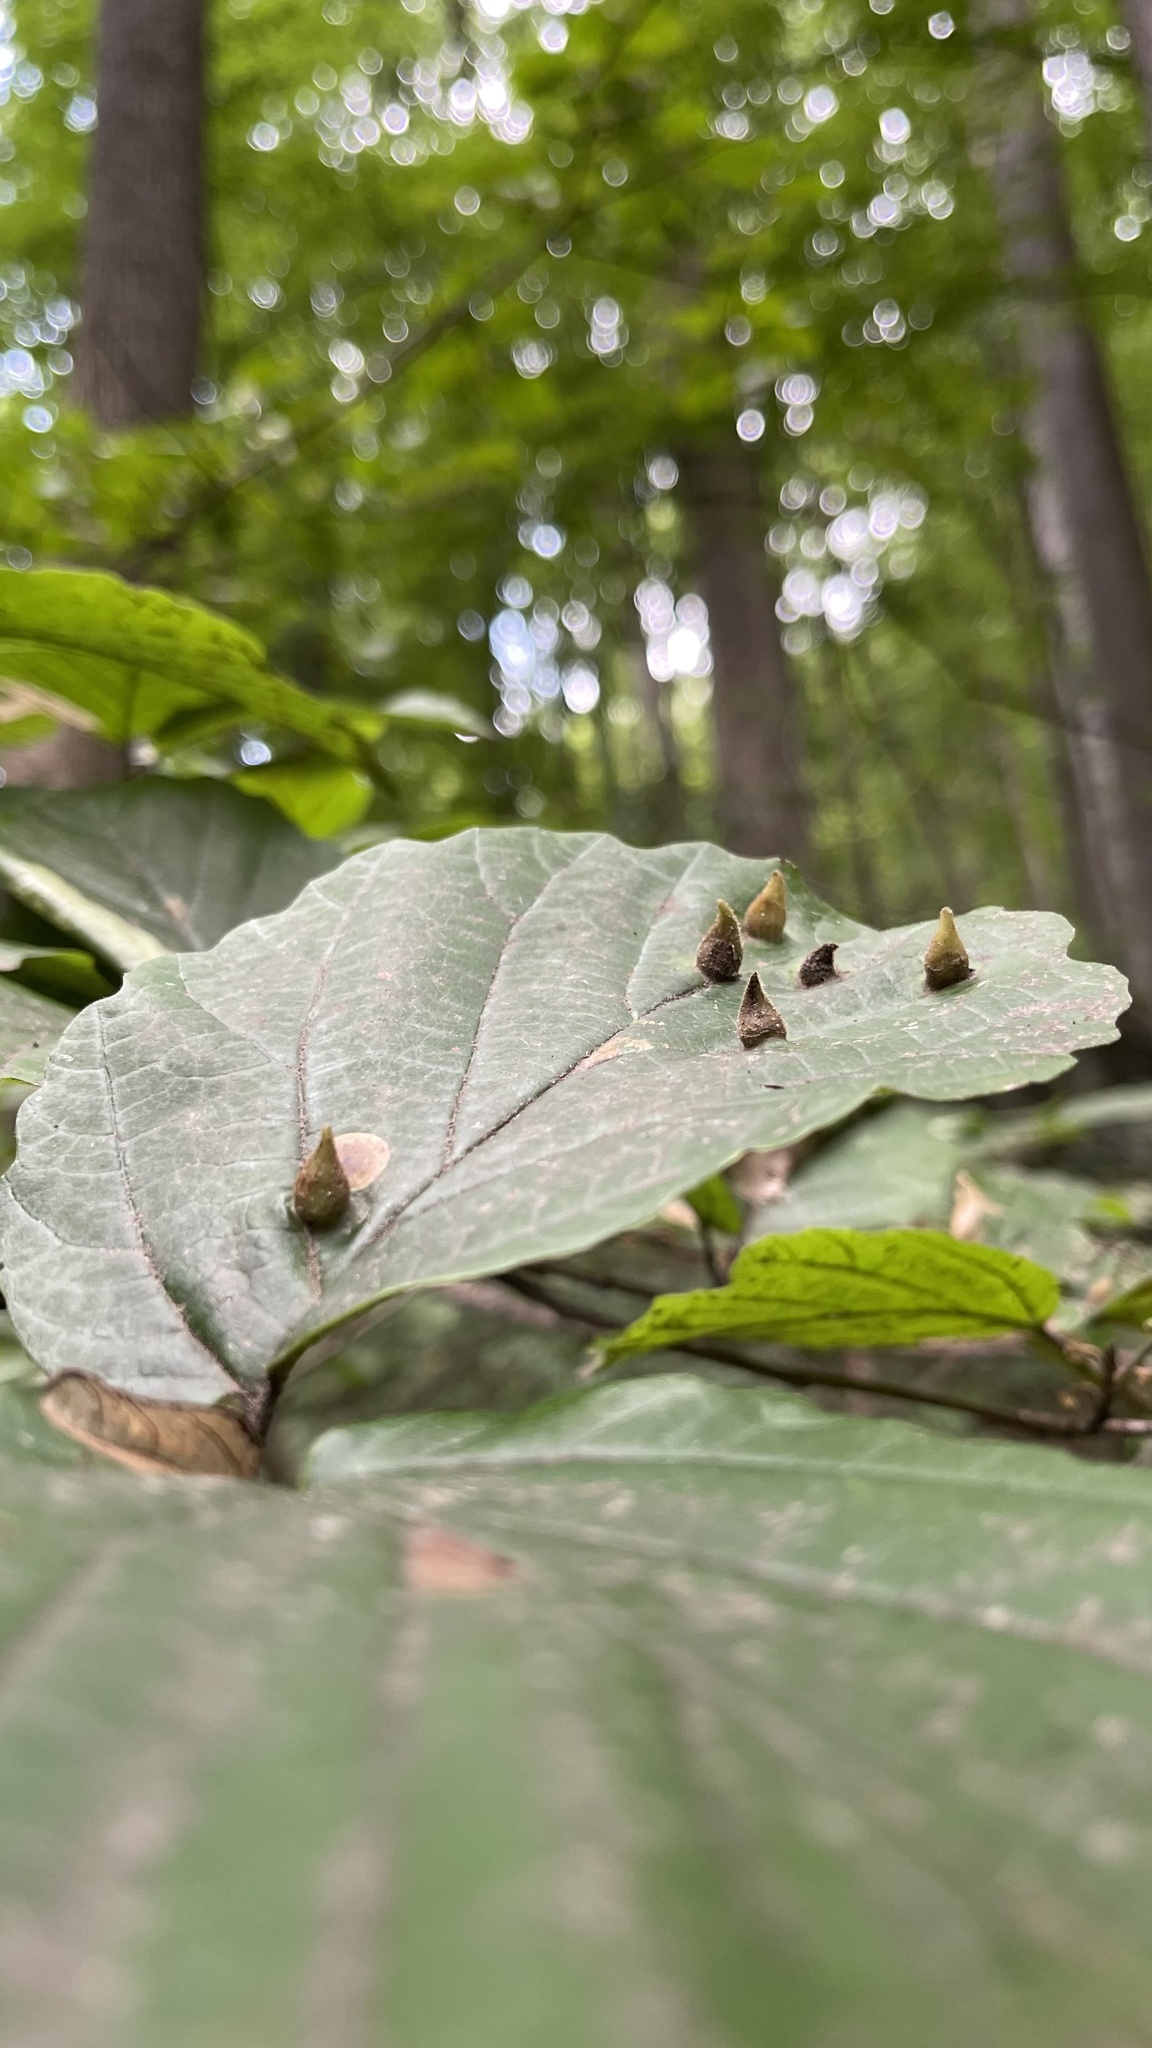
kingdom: Animalia
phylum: Arthropoda
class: Insecta
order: Hemiptera
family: Aphididae
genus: Hormaphis
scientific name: Hormaphis hamamelidis
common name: Witch-hazel cone gall aphid
